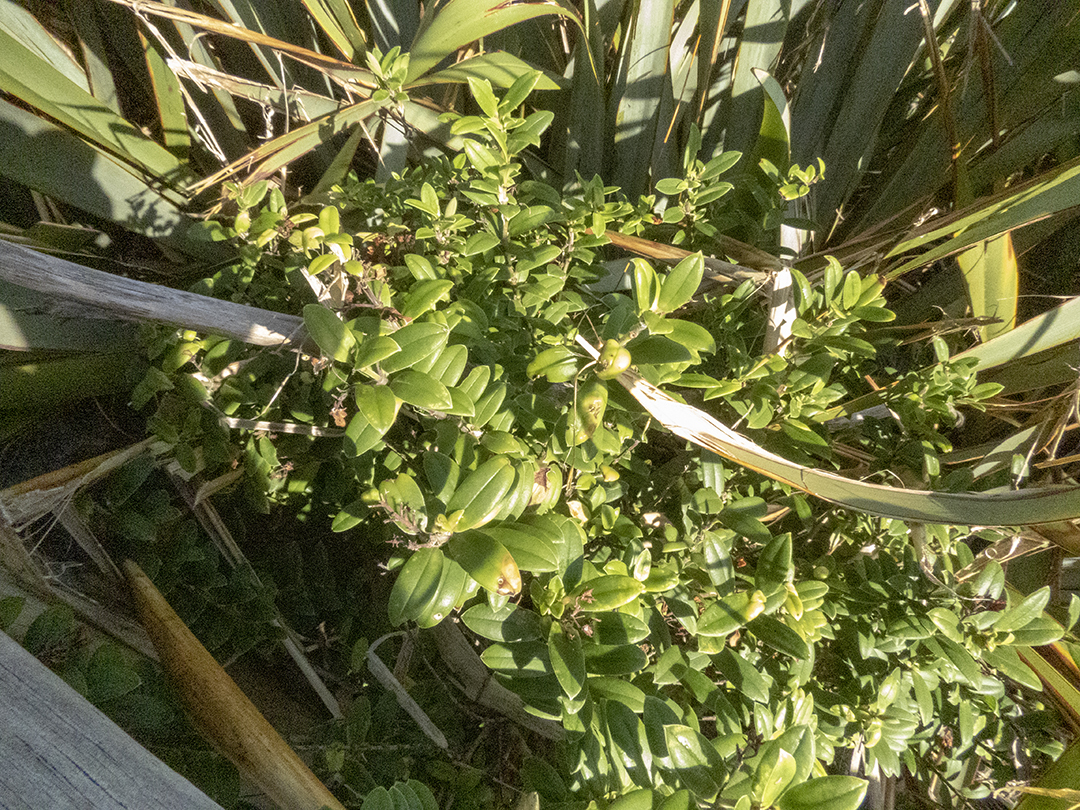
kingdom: Plantae
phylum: Tracheophyta
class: Magnoliopsida
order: Lamiales
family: Plantaginaceae
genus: Veronica
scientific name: Veronica elliptica
